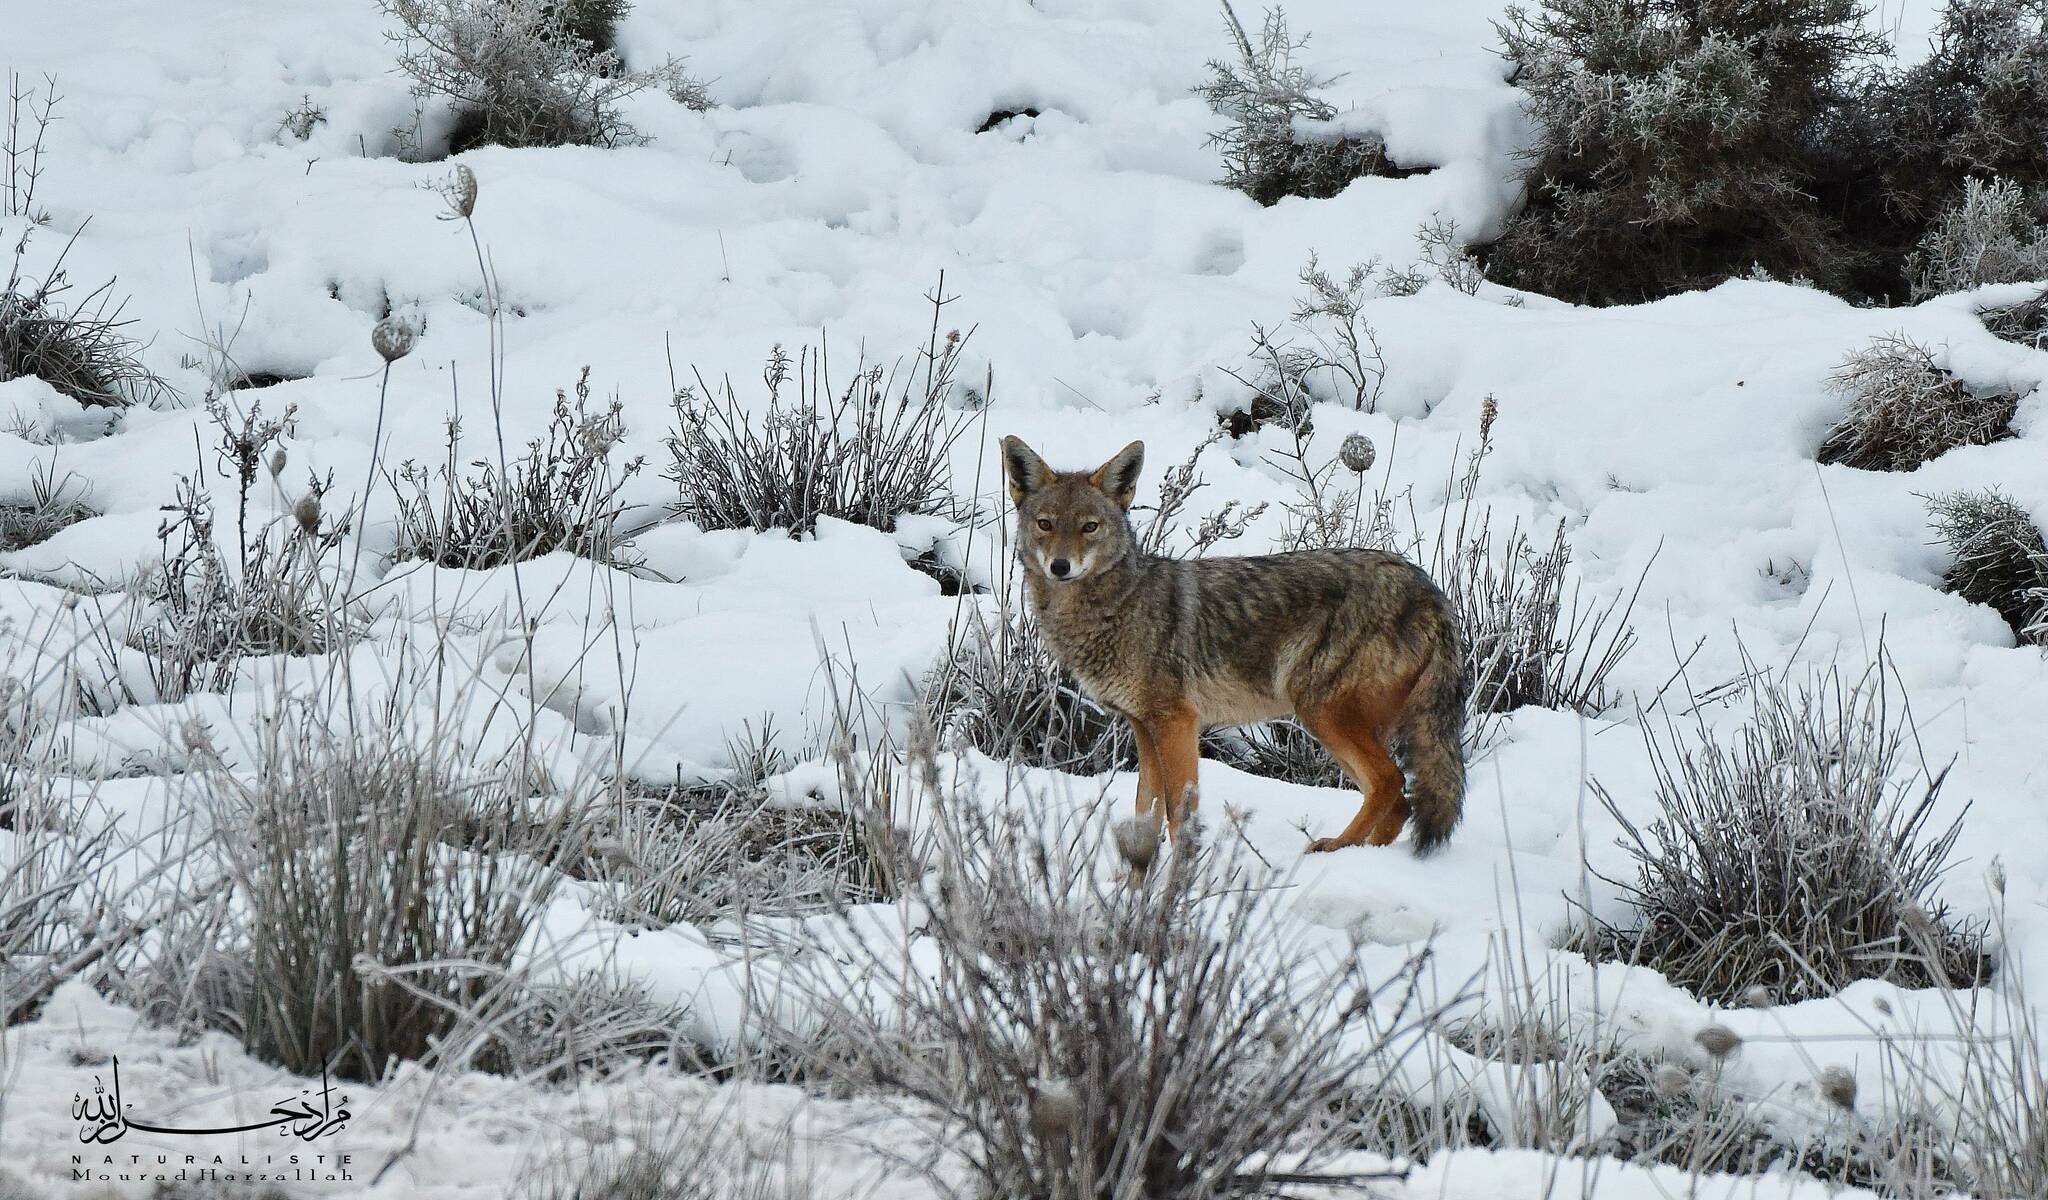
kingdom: Animalia
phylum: Chordata
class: Mammalia
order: Carnivora
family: Canidae
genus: Canis
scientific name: Canis lupaster
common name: African golden wolf
